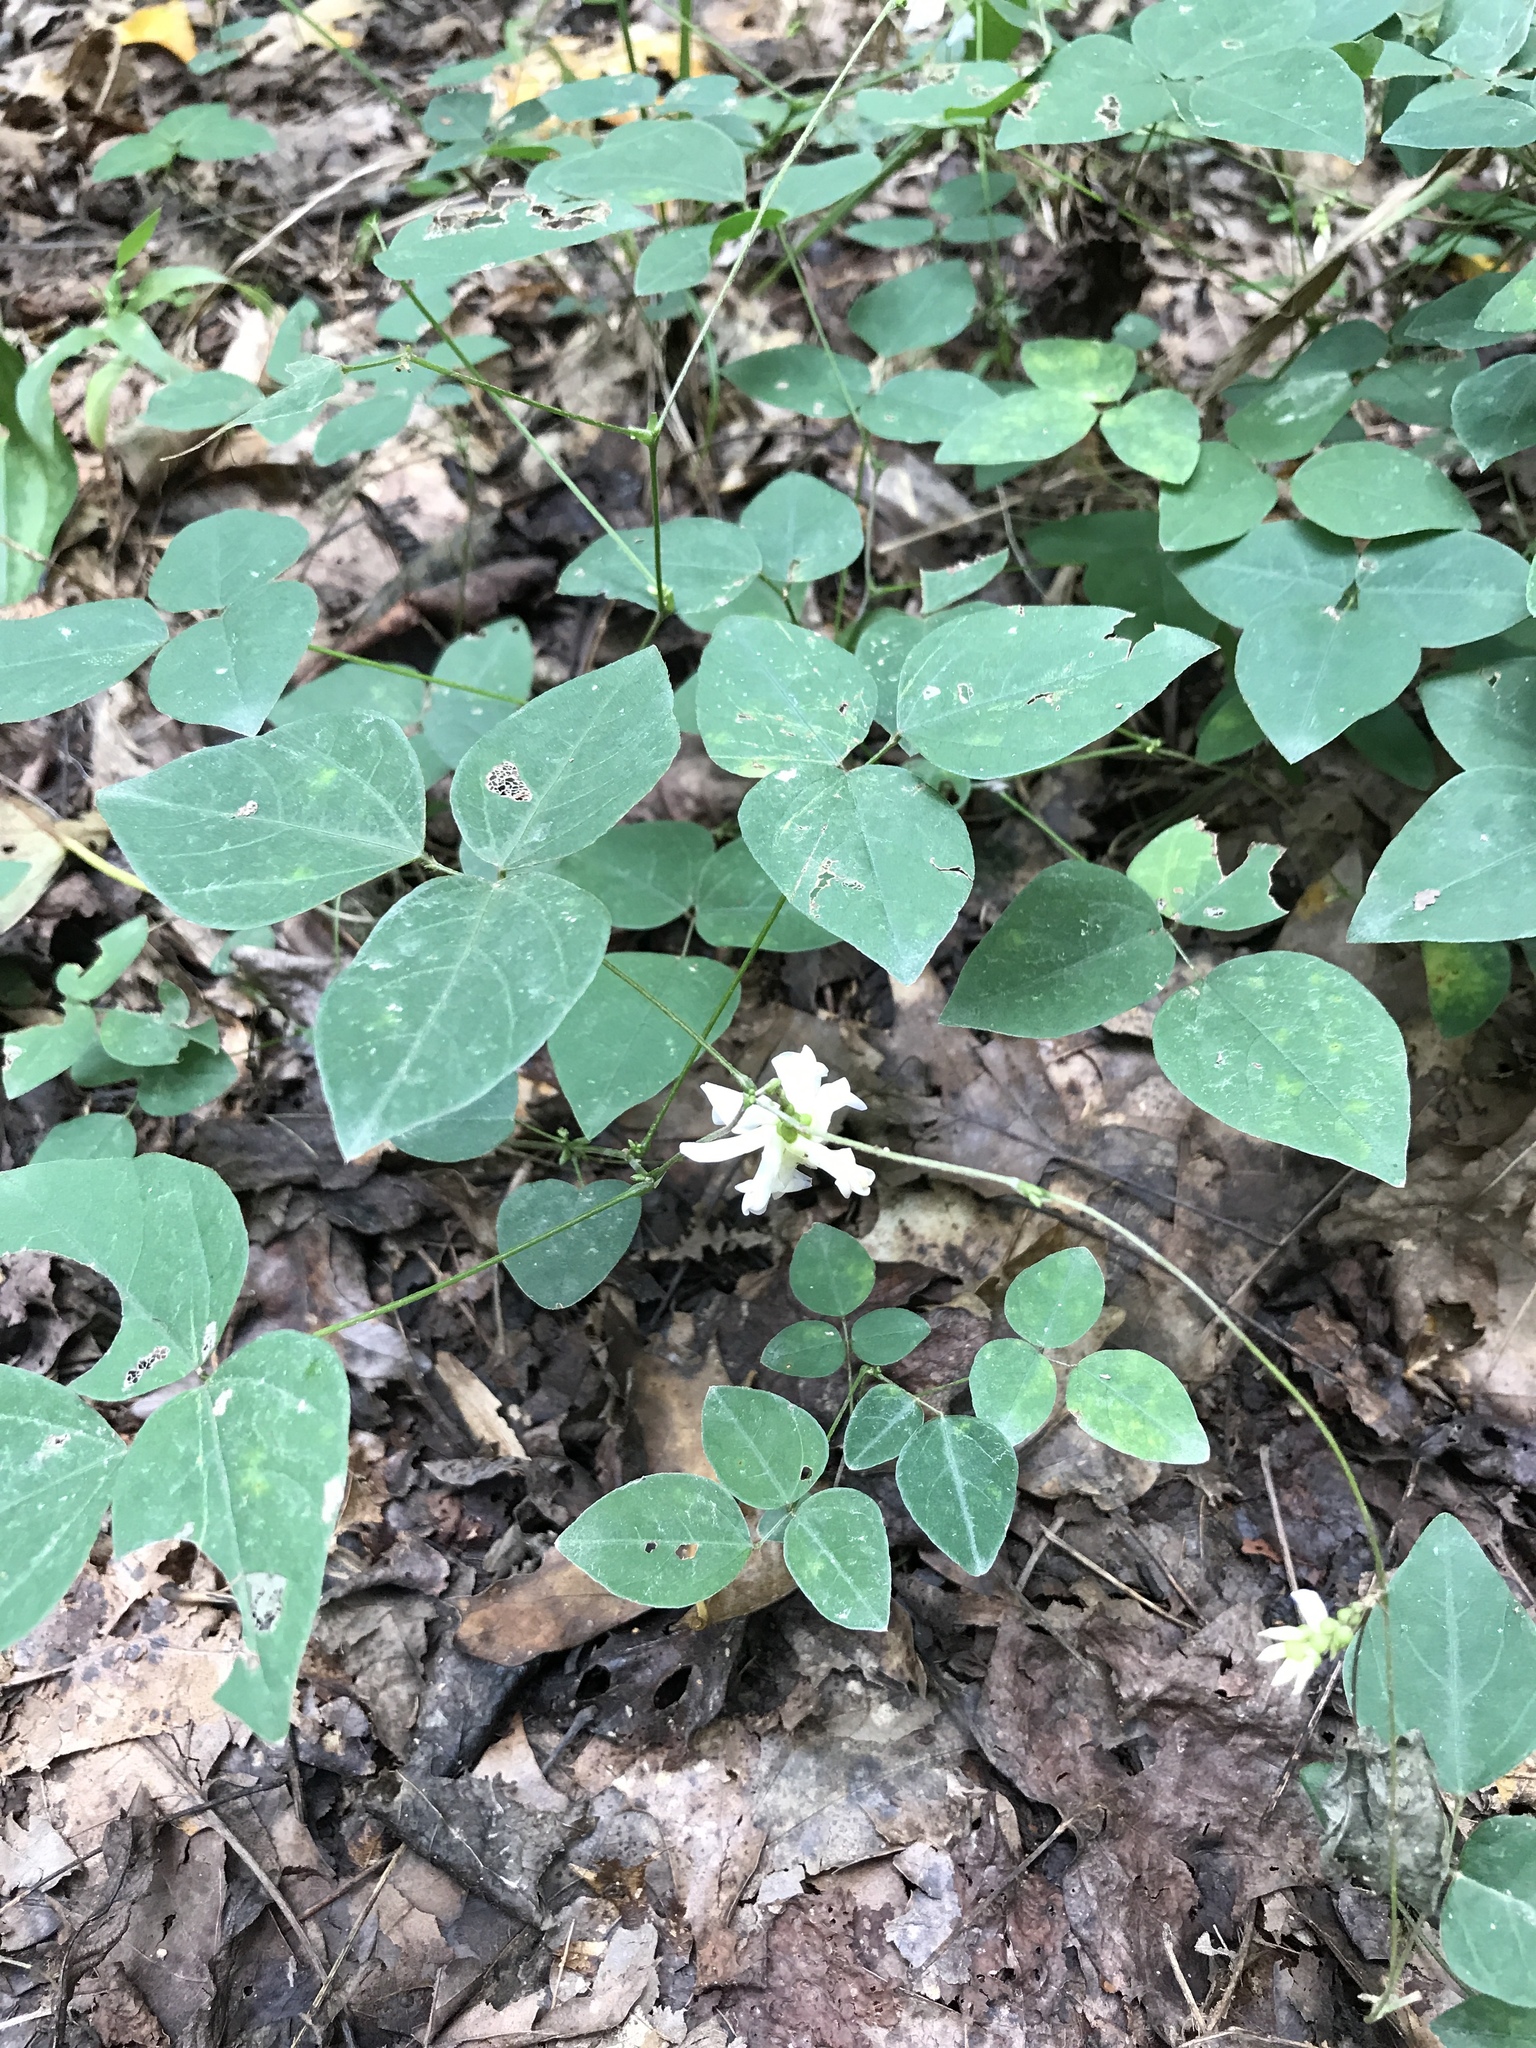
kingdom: Plantae
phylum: Tracheophyta
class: Magnoliopsida
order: Fabales
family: Fabaceae
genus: Amphicarpaea
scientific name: Amphicarpaea bracteata
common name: American hog peanut
